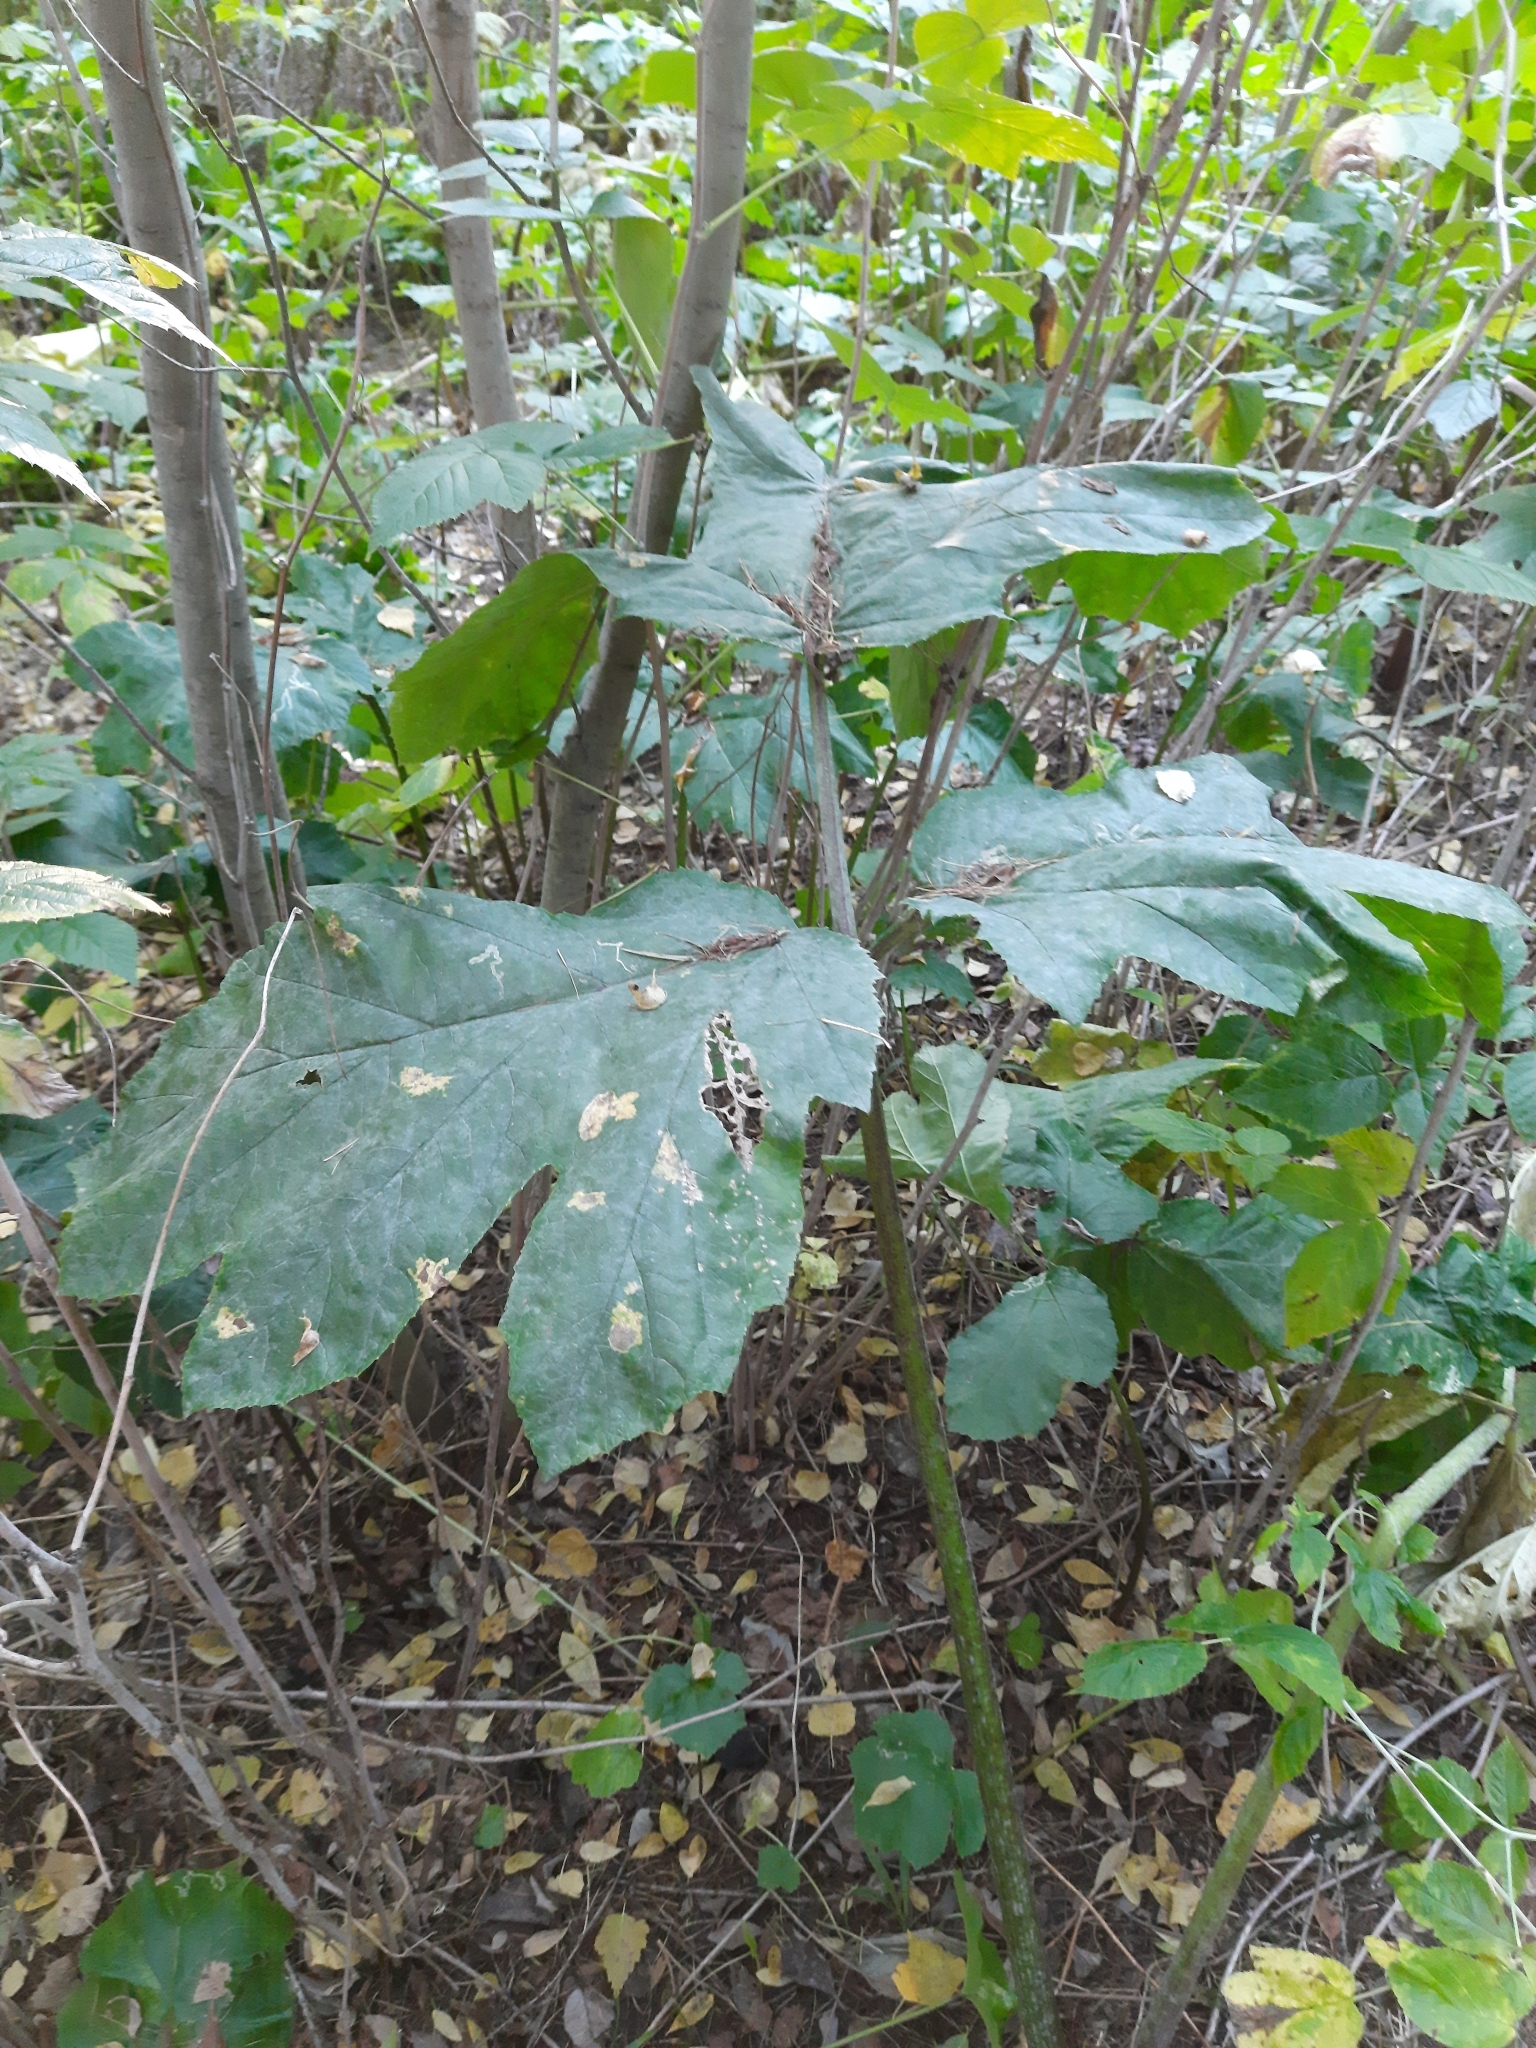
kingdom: Plantae
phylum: Tracheophyta
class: Magnoliopsida
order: Apiales
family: Apiaceae
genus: Heracleum
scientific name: Heracleum sosnowskyi
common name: Sosnowsky's hogweed
